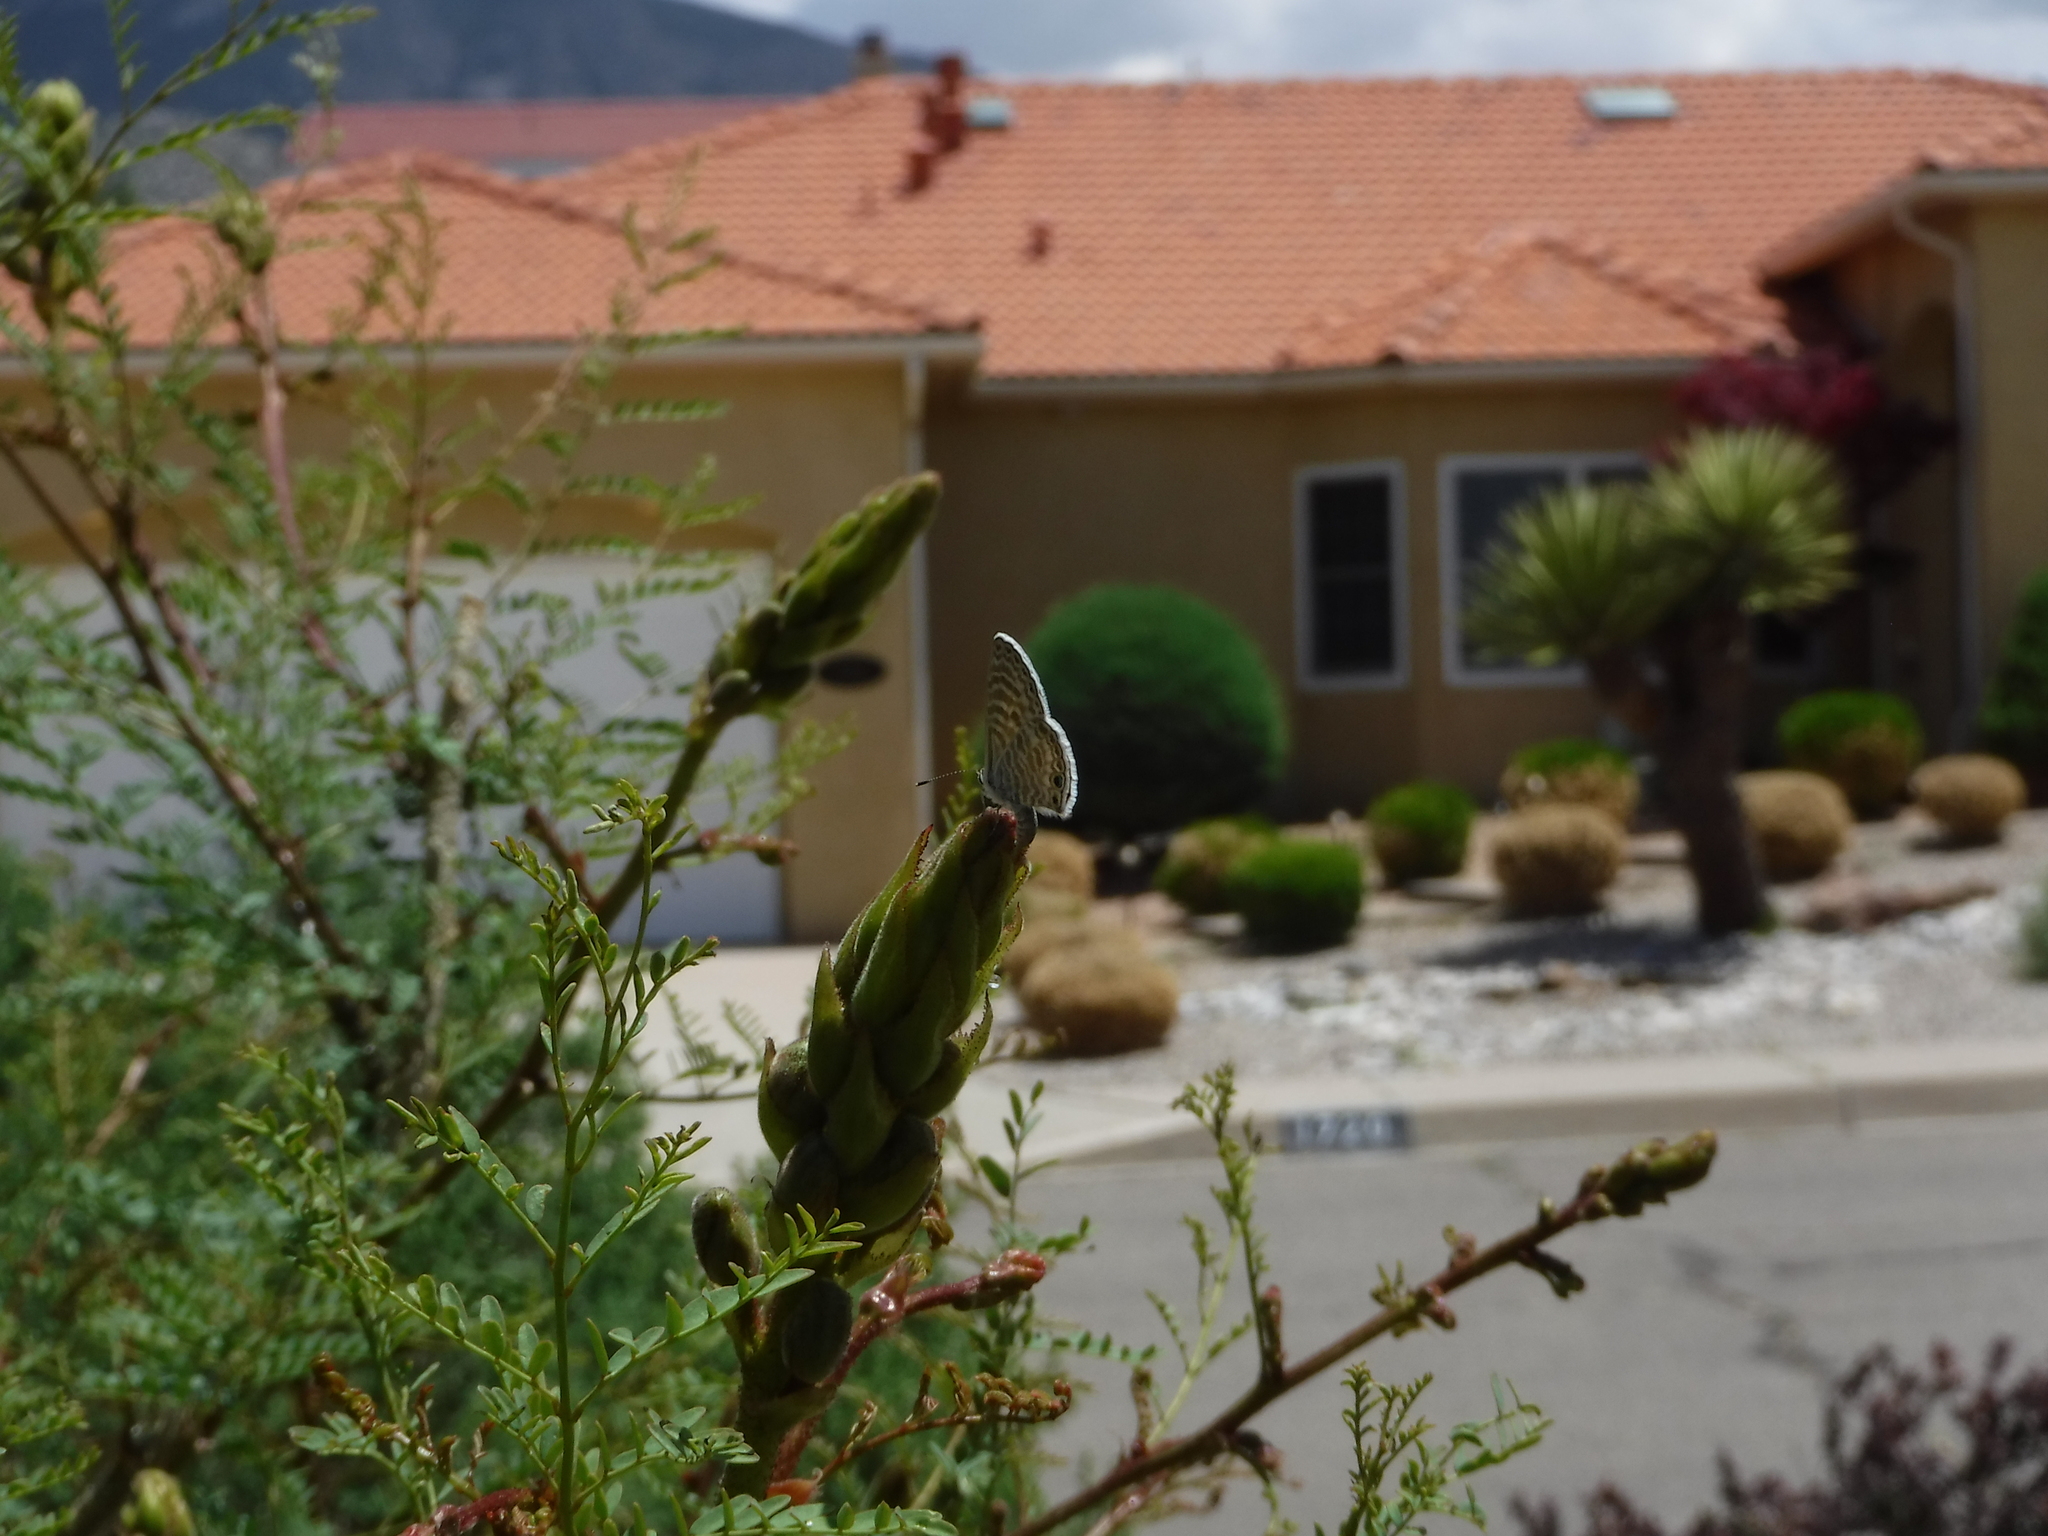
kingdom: Animalia
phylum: Arthropoda
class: Insecta
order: Lepidoptera
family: Lycaenidae
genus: Leptotes
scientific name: Leptotes marina
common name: Marine blue
